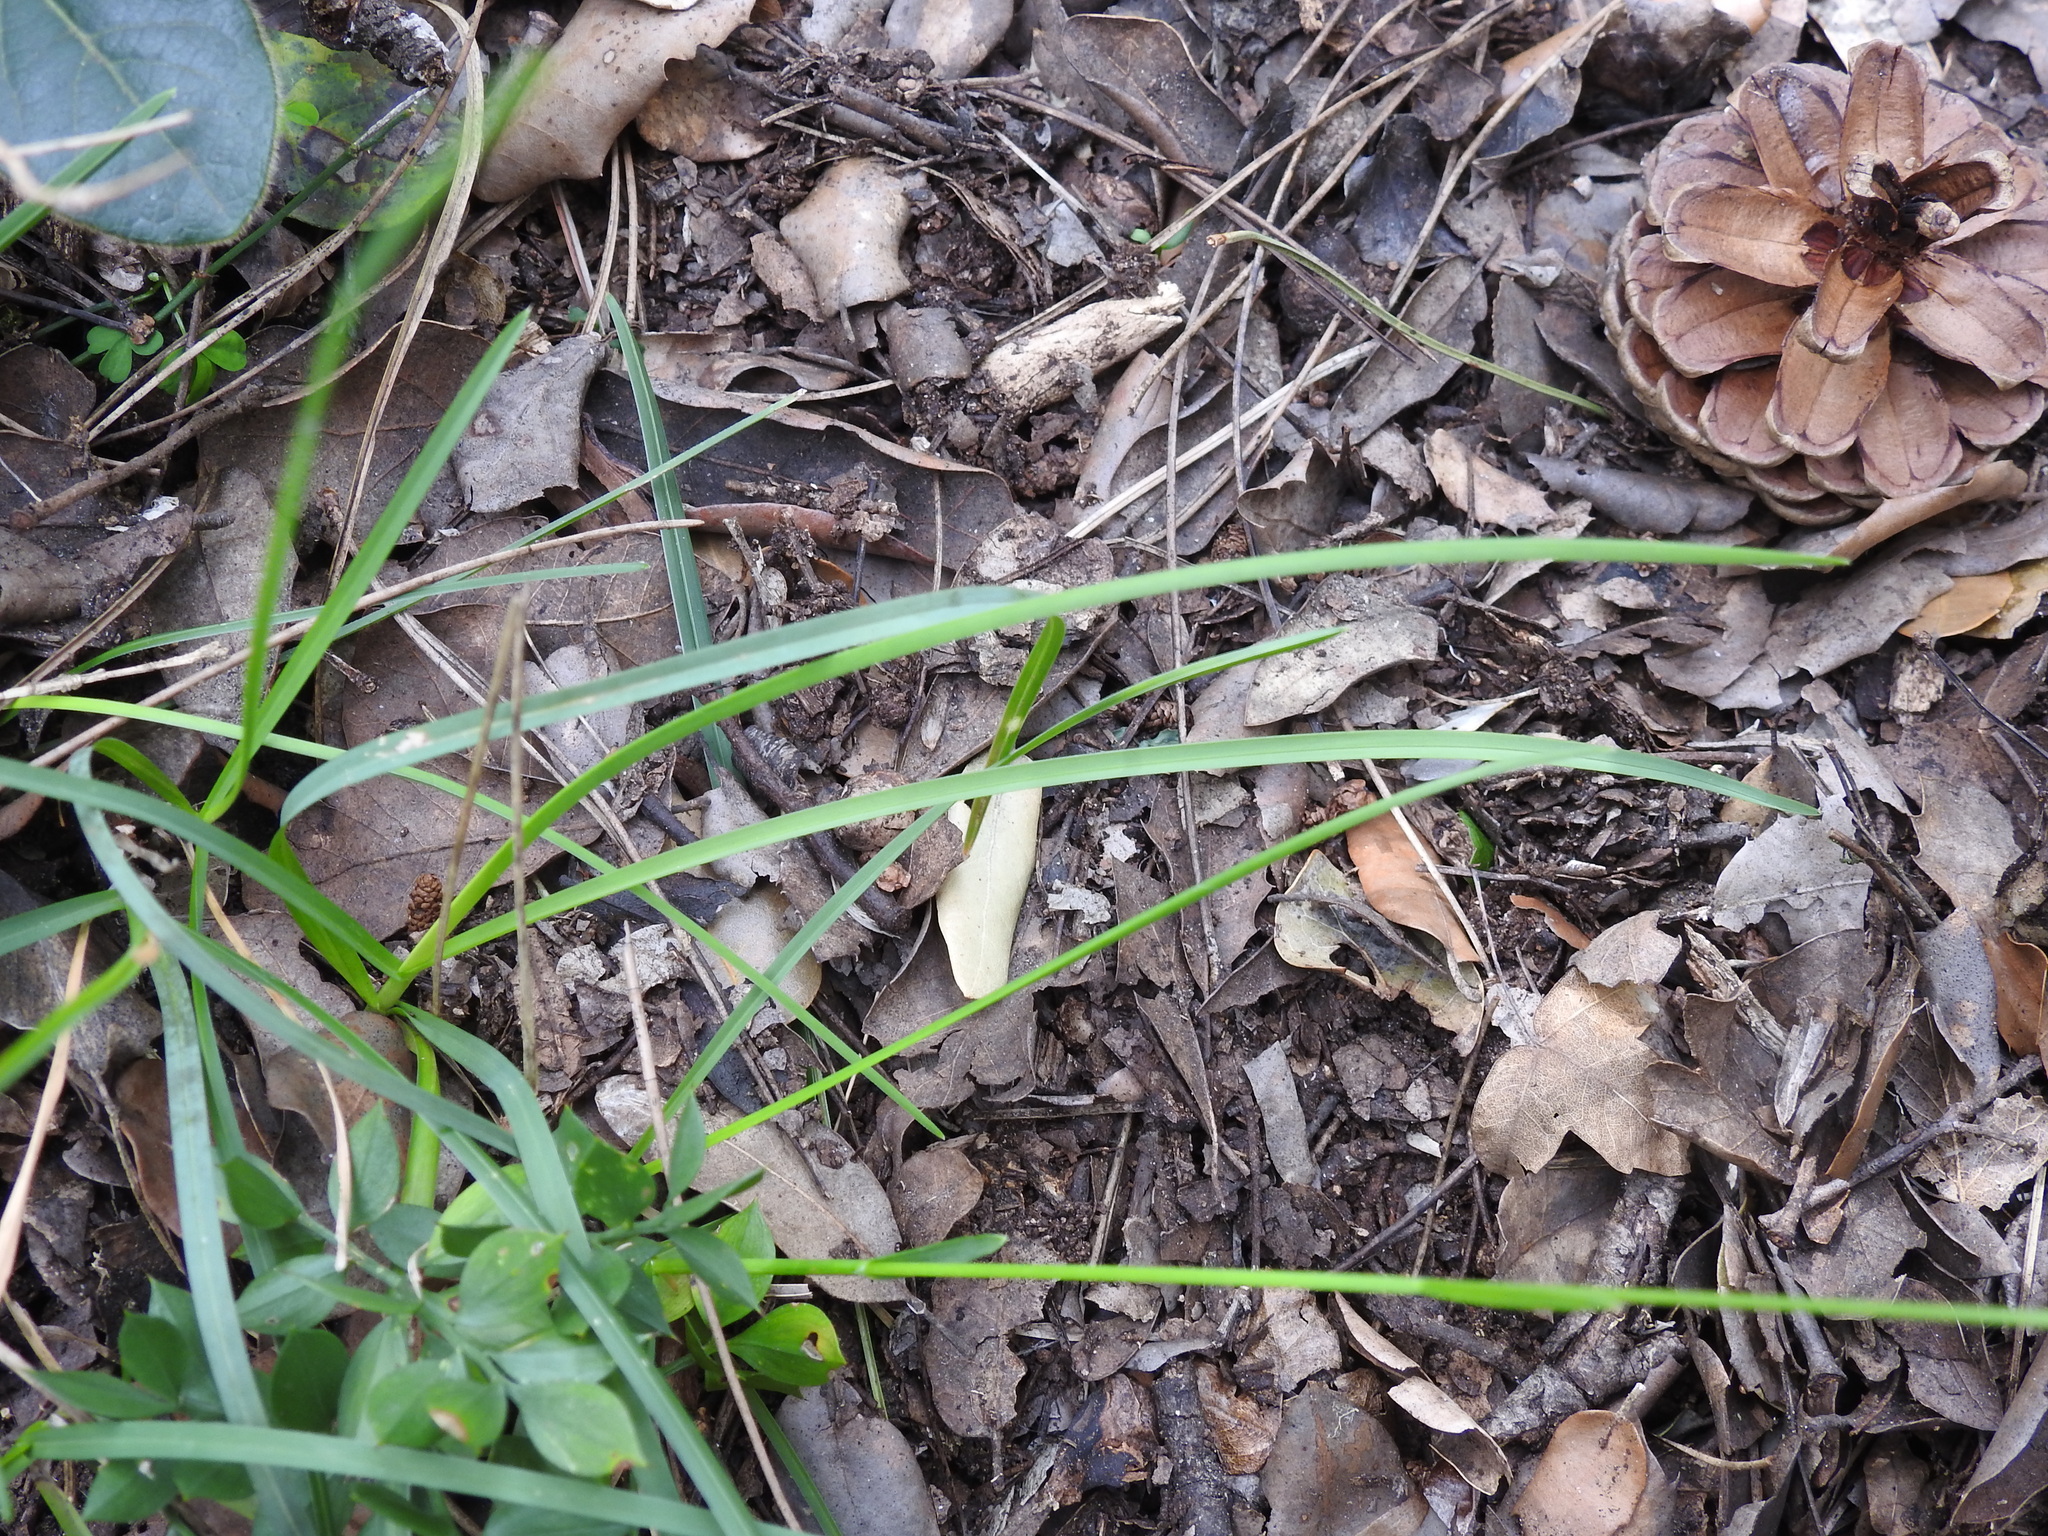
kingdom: Plantae
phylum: Tracheophyta
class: Liliopsida
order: Poales
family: Poaceae
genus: Sesleria
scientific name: Sesleria caerulea
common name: Blue moor-grass
